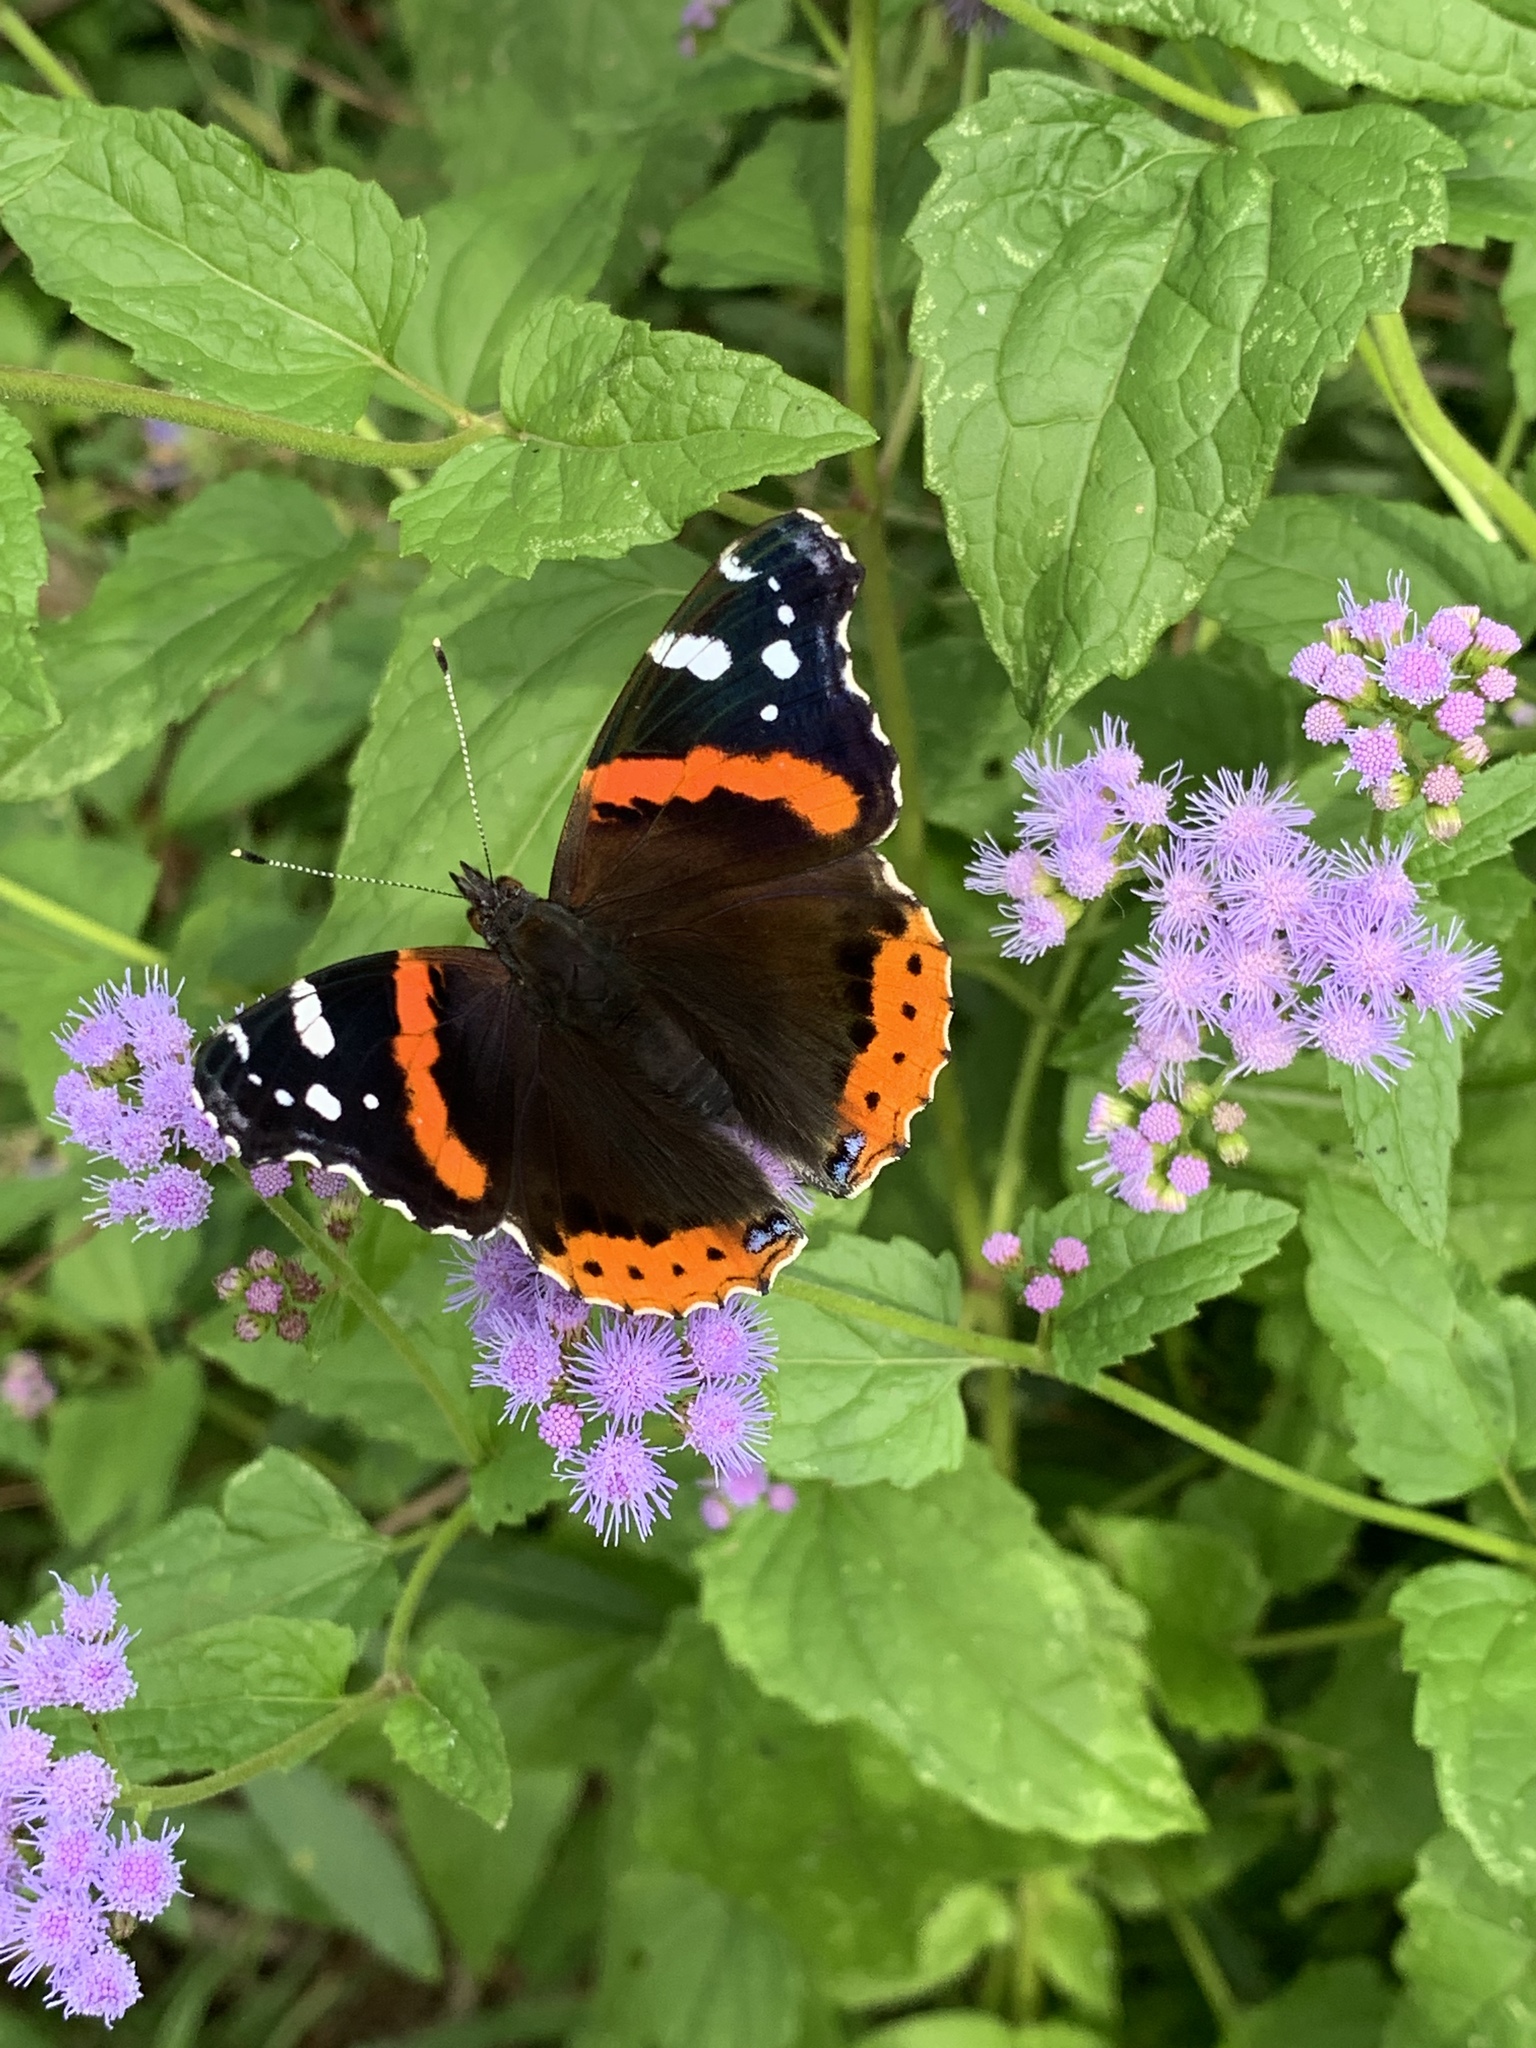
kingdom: Animalia
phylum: Arthropoda
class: Insecta
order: Lepidoptera
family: Nymphalidae
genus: Vanessa
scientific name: Vanessa atalanta
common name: Red admiral
